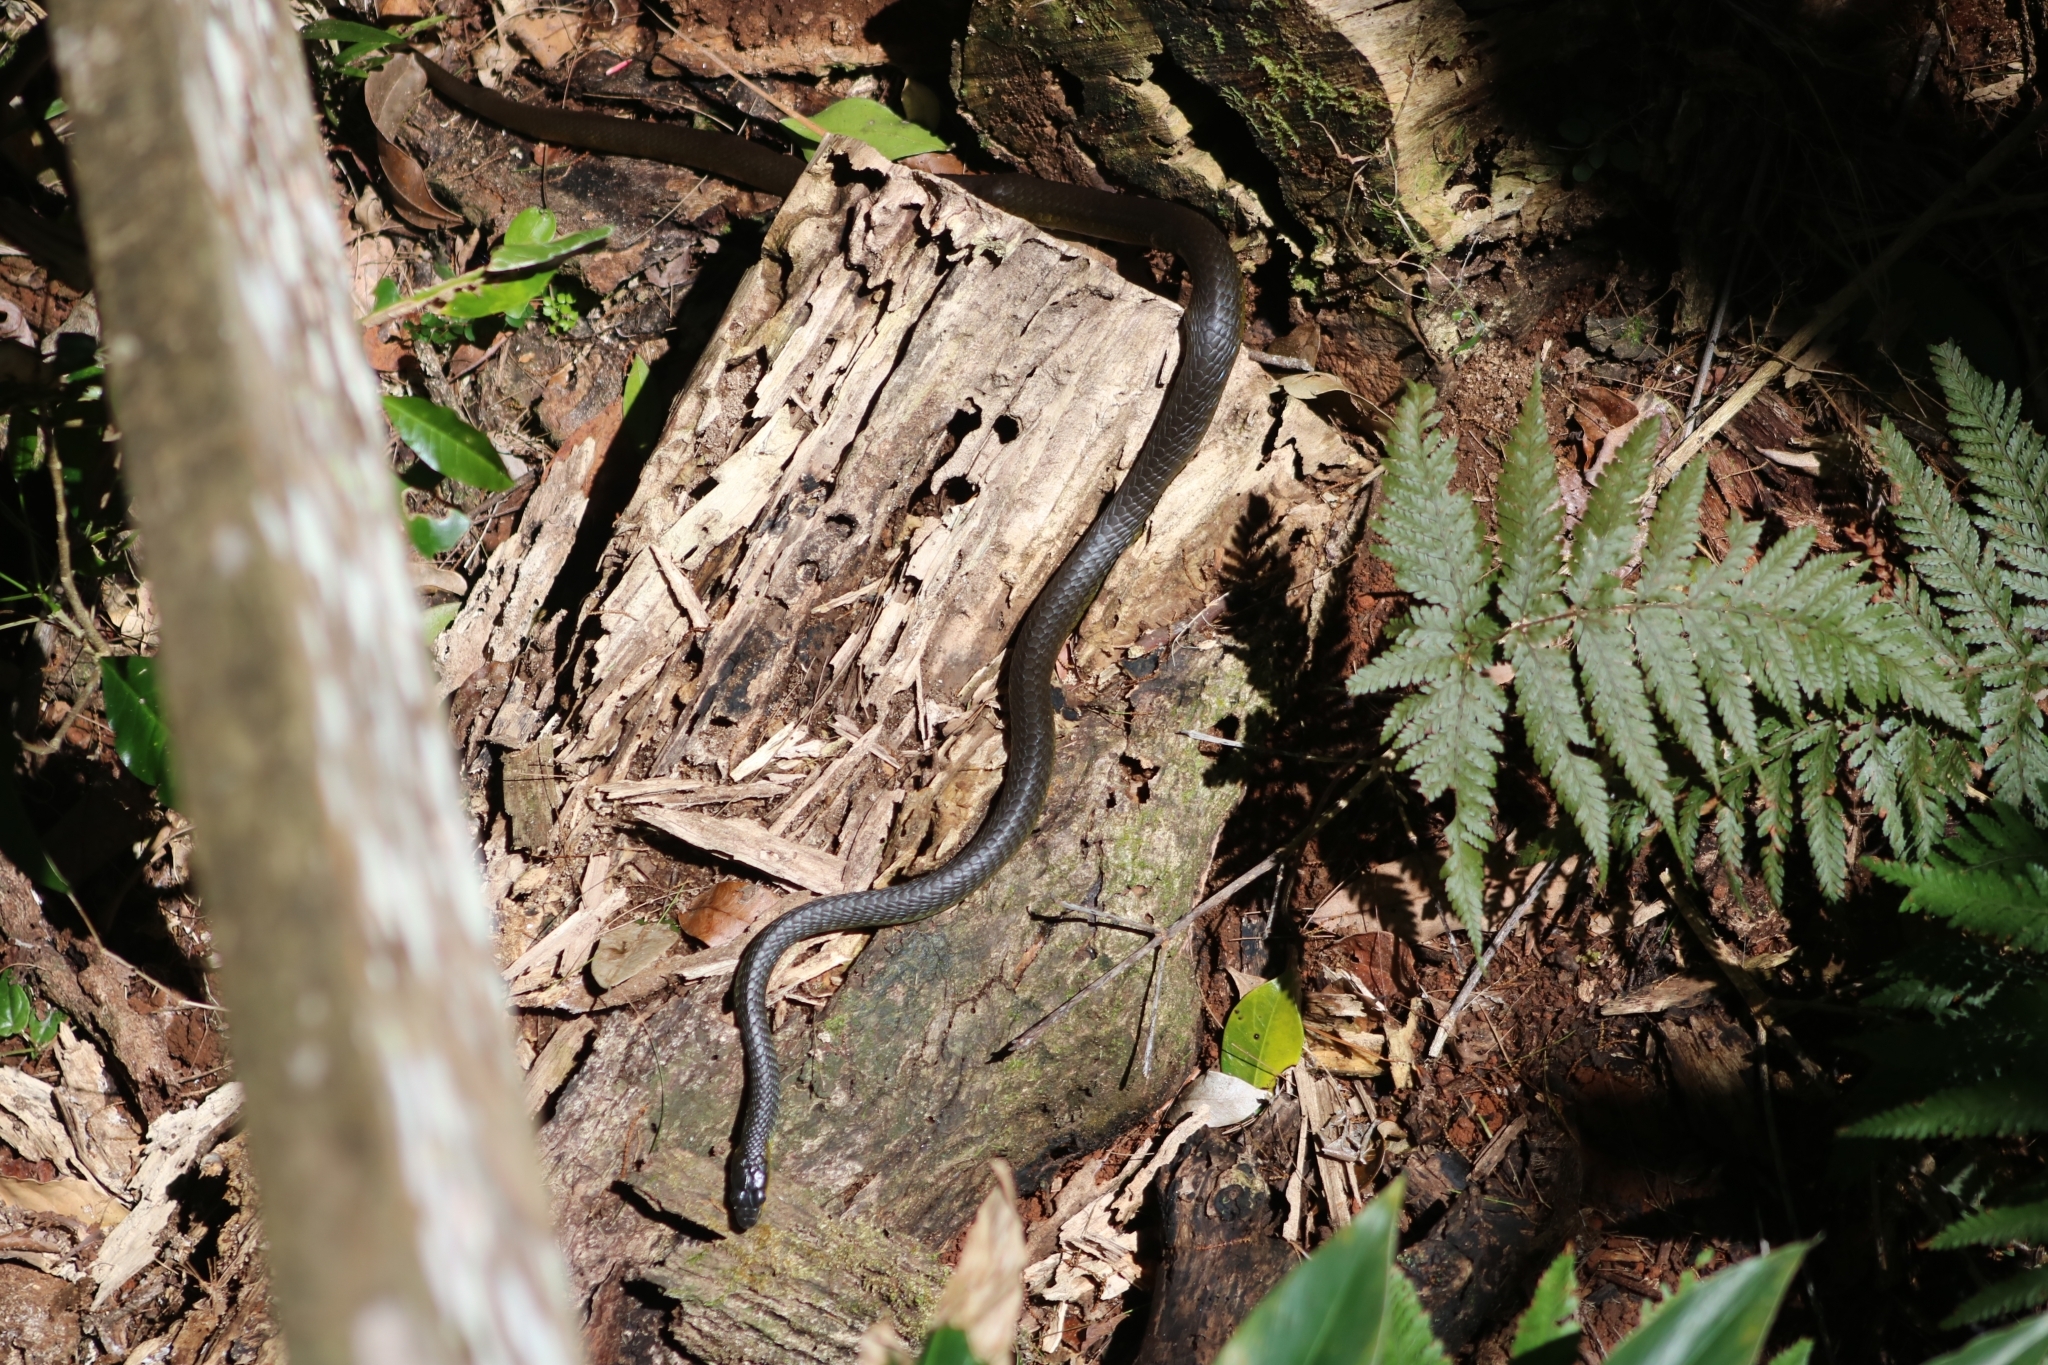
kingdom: Animalia
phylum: Chordata
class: Squamata
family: Colubridae
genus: Dendrelaphis
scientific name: Dendrelaphis punctulatus
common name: Common tree snake
